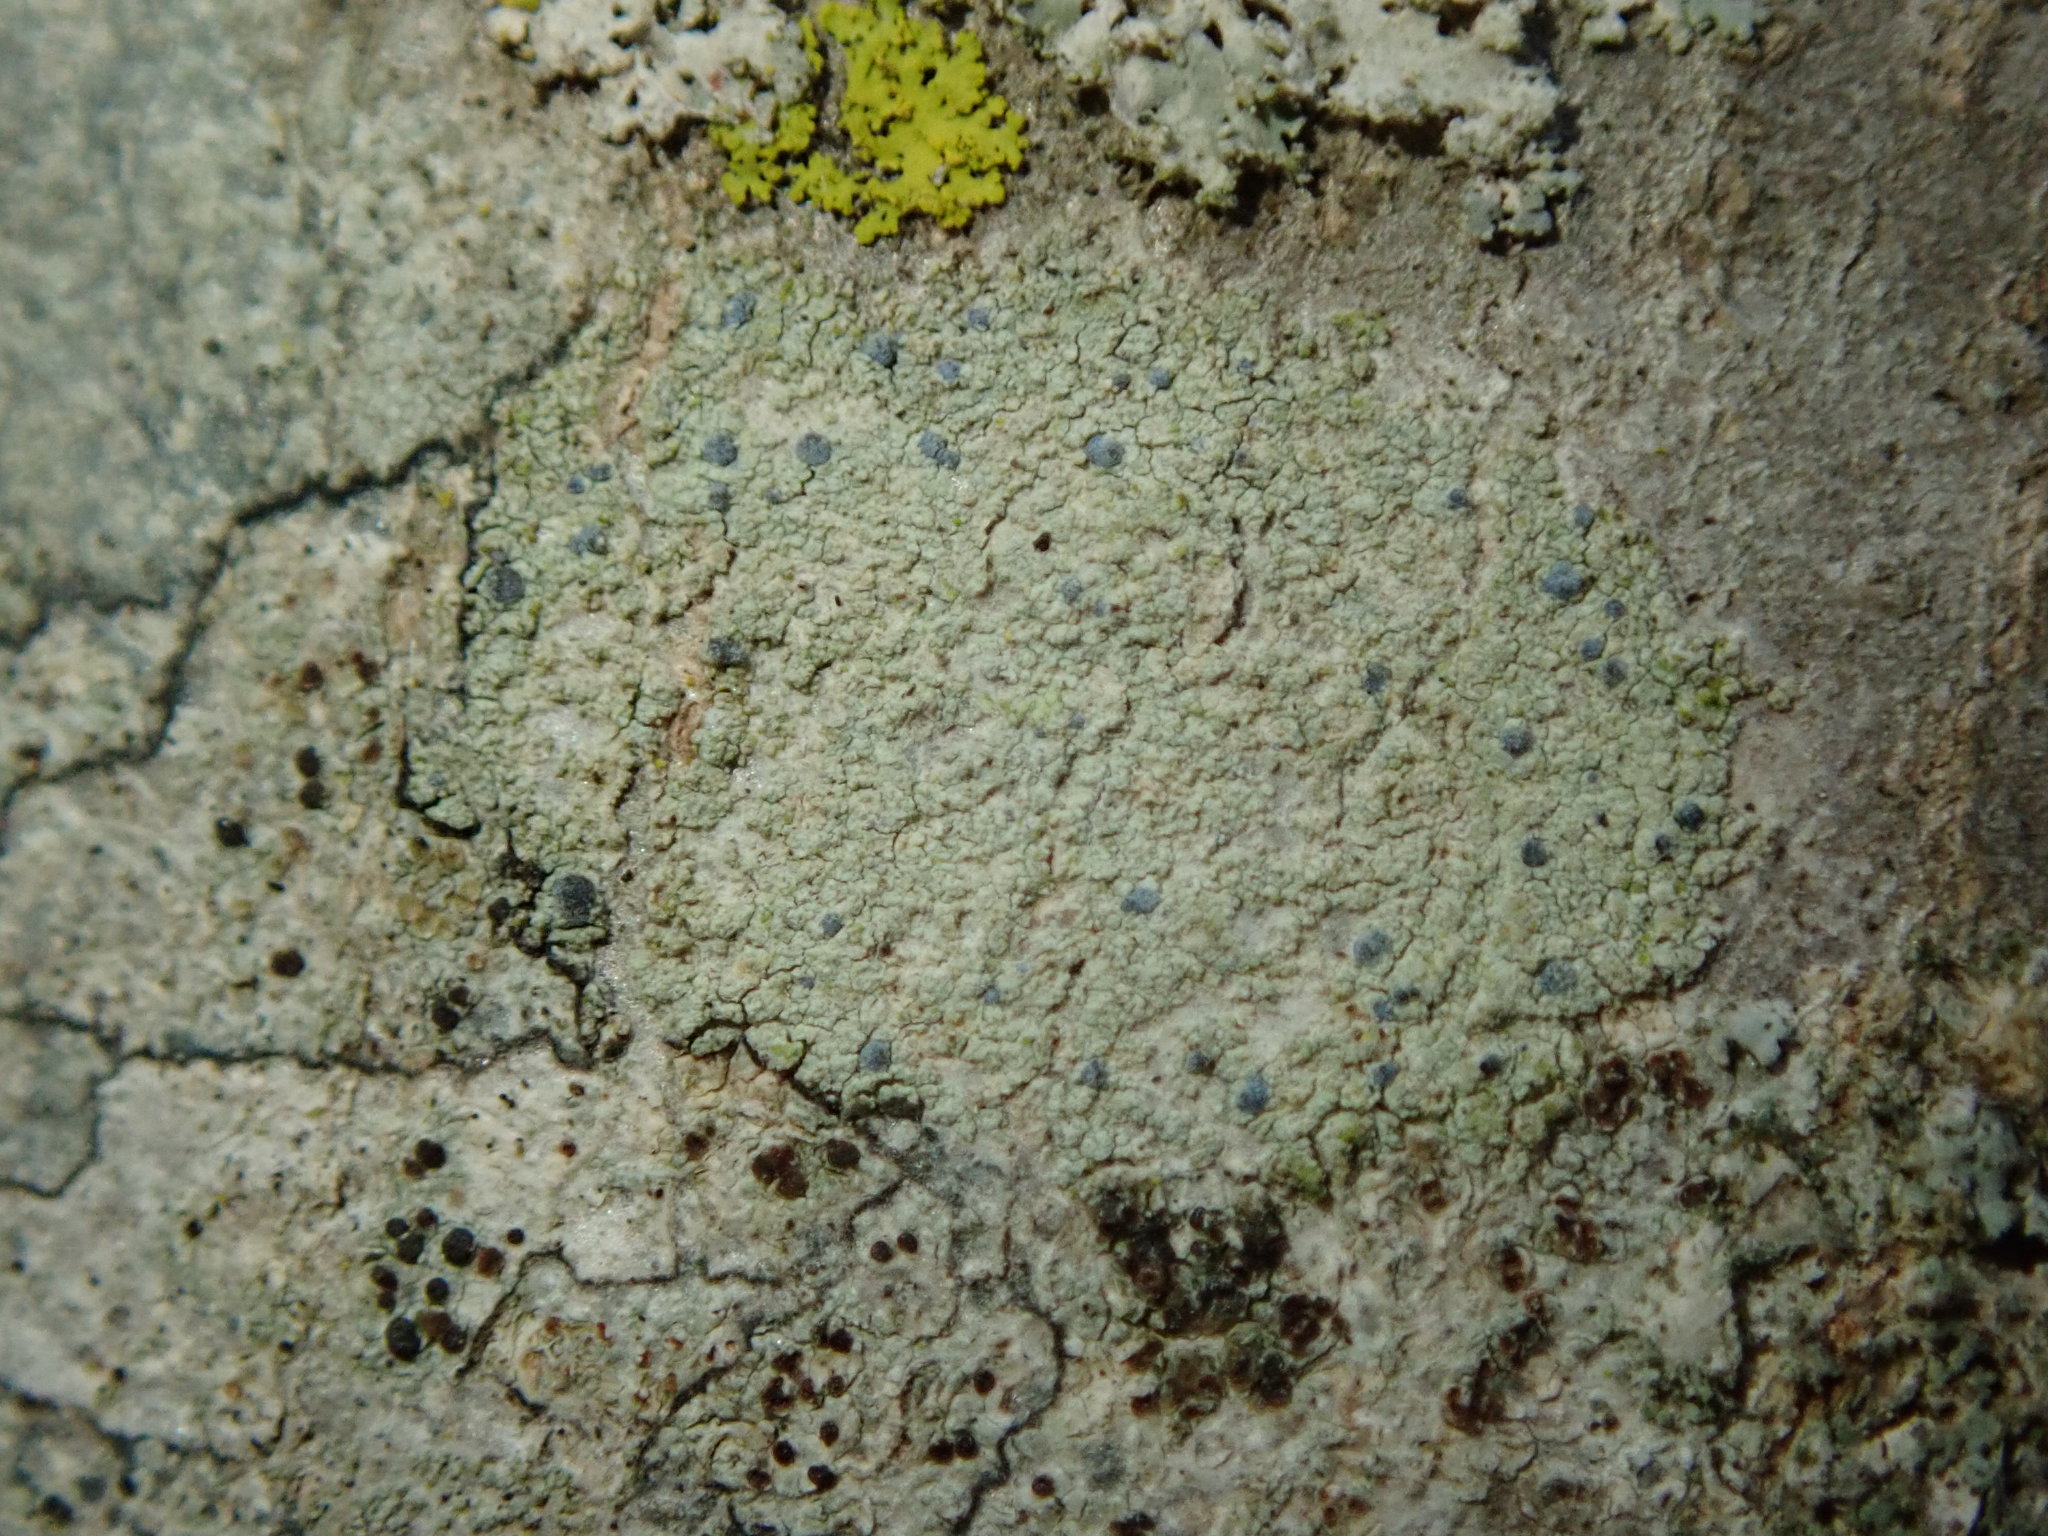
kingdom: Fungi
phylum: Ascomycota
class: Arthoniomycetes
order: Arthoniales
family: Chrysotrichaceae
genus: Chrysothrix
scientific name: Chrysothrix caesia
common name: Frosted comma lichen
